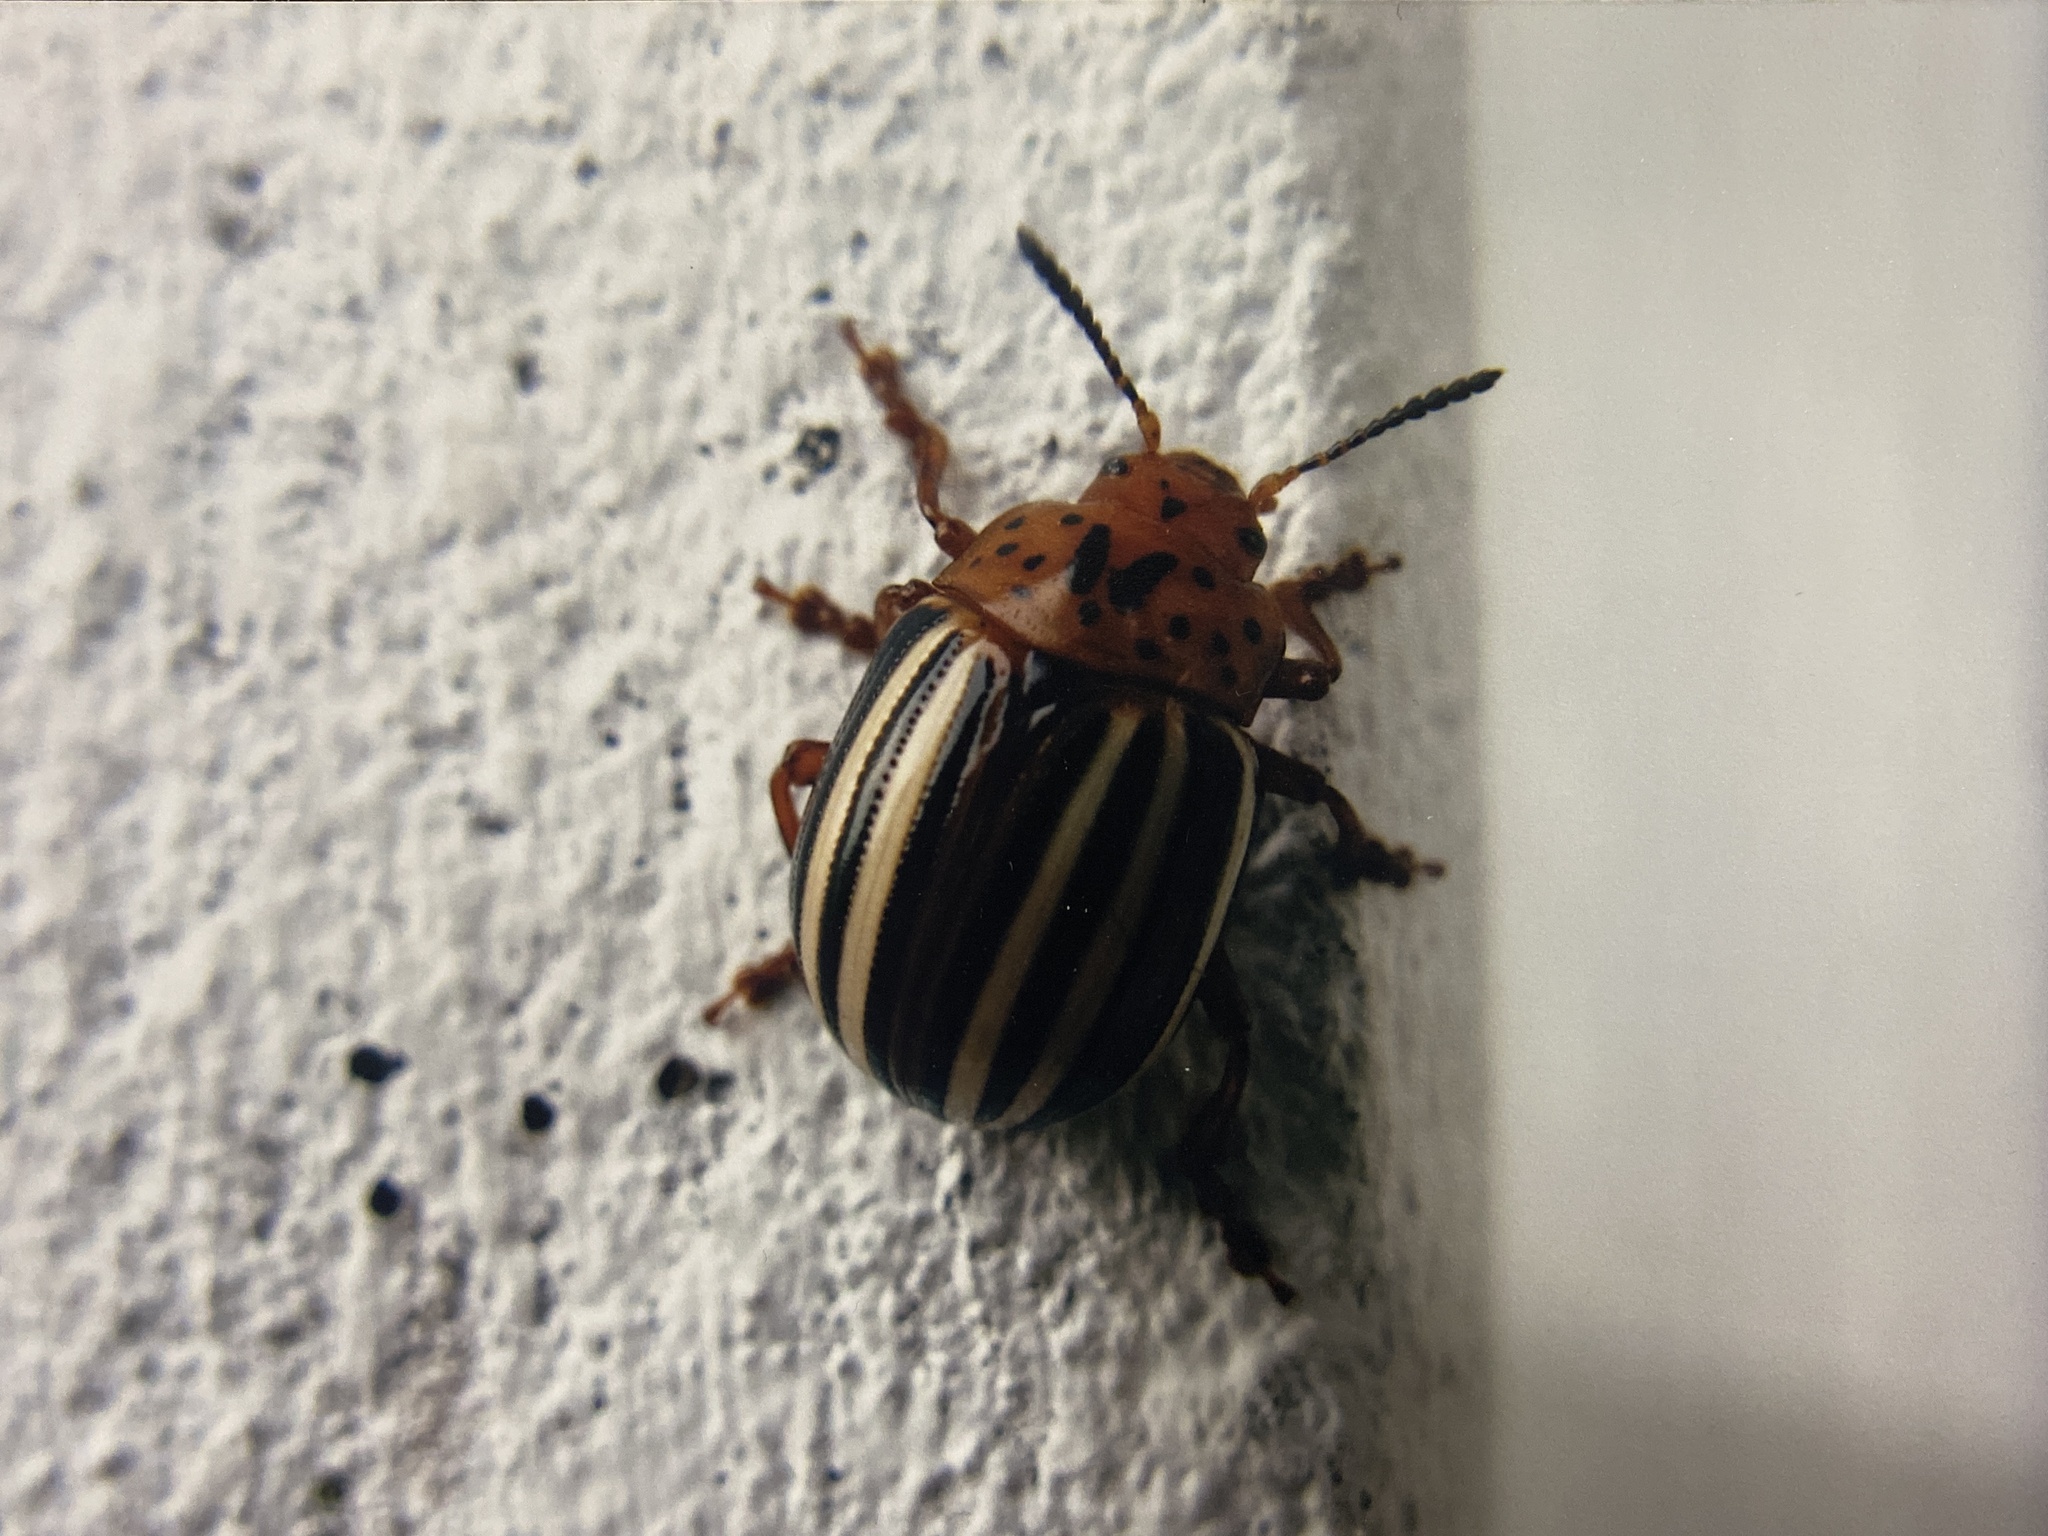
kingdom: Animalia
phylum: Arthropoda
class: Insecta
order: Coleoptera
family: Chrysomelidae
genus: Leptinotarsa
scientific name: Leptinotarsa juncta
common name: False potato beetle
